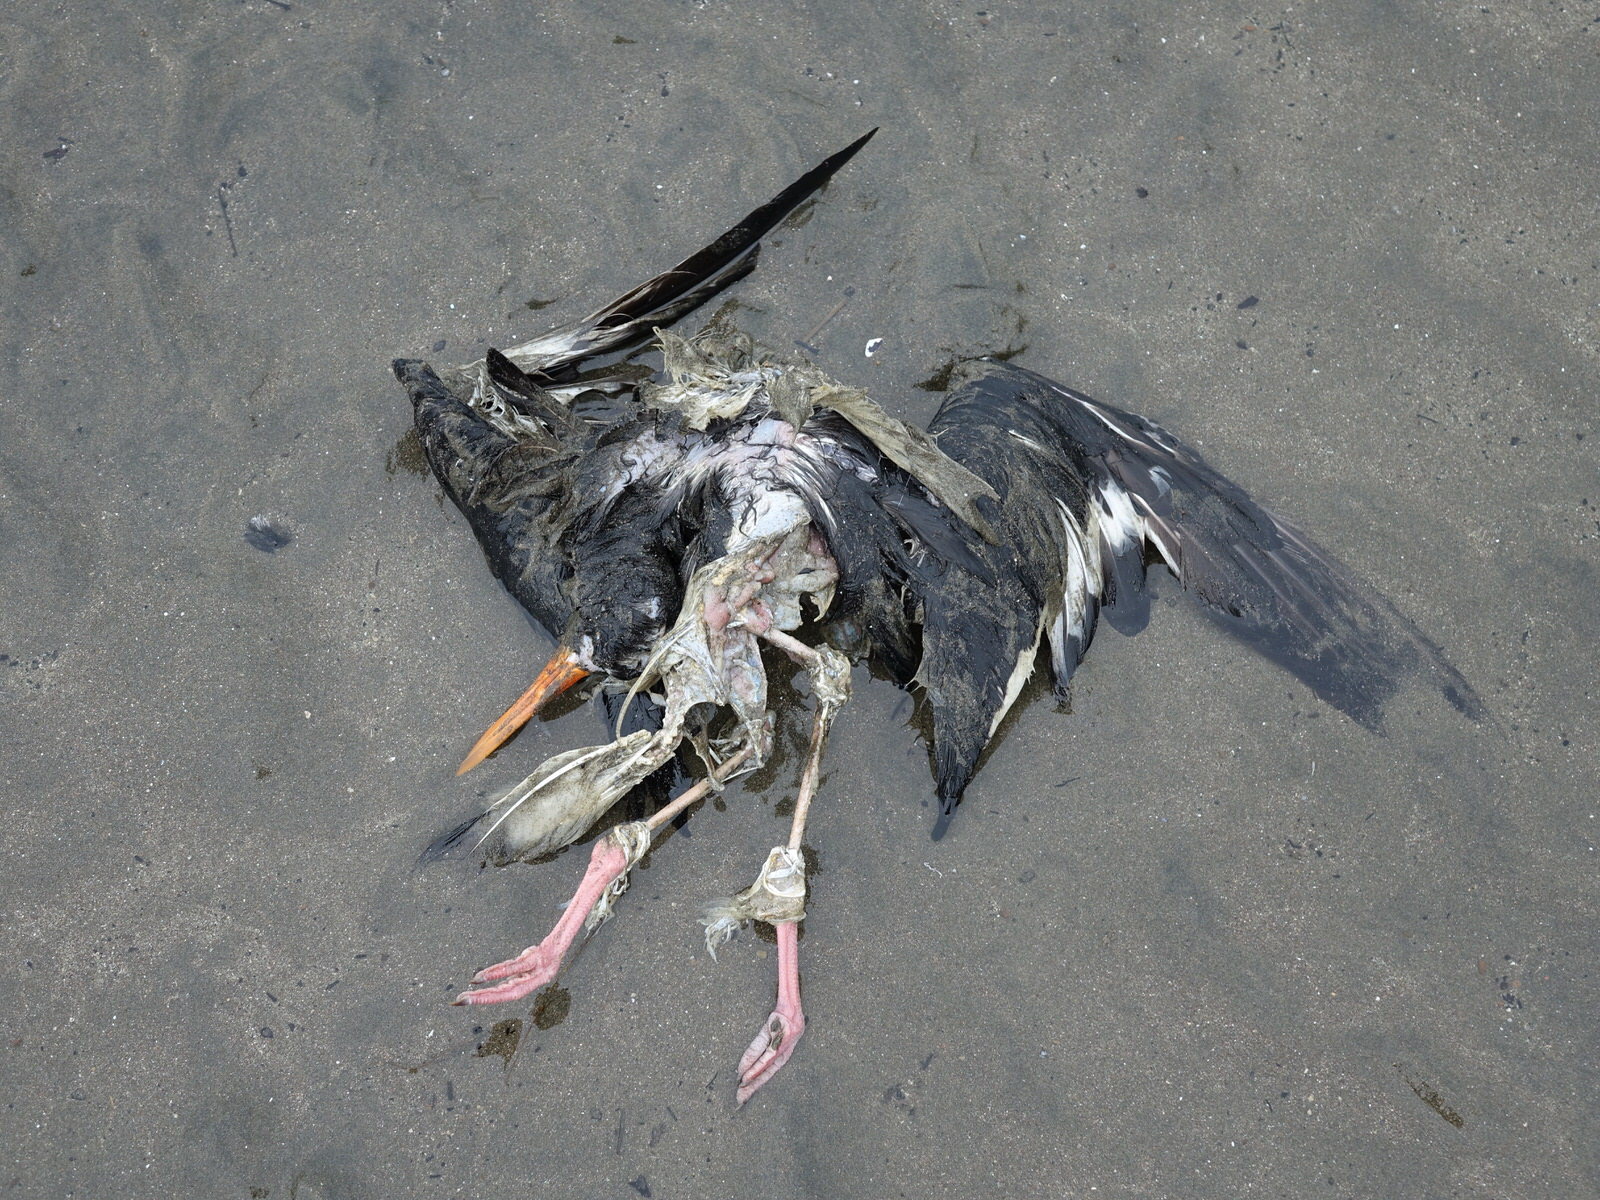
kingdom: Animalia
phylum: Chordata
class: Aves
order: Charadriiformes
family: Haematopodidae
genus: Haematopus
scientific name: Haematopus finschi
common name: South island oystercatcher
